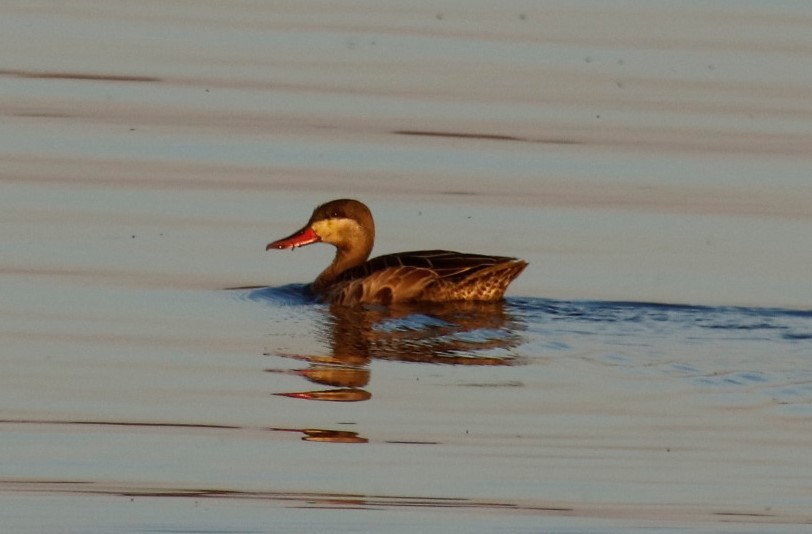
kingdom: Animalia
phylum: Chordata
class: Aves
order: Anseriformes
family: Anatidae
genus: Anas
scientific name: Anas erythrorhyncha
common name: Red-billed teal
